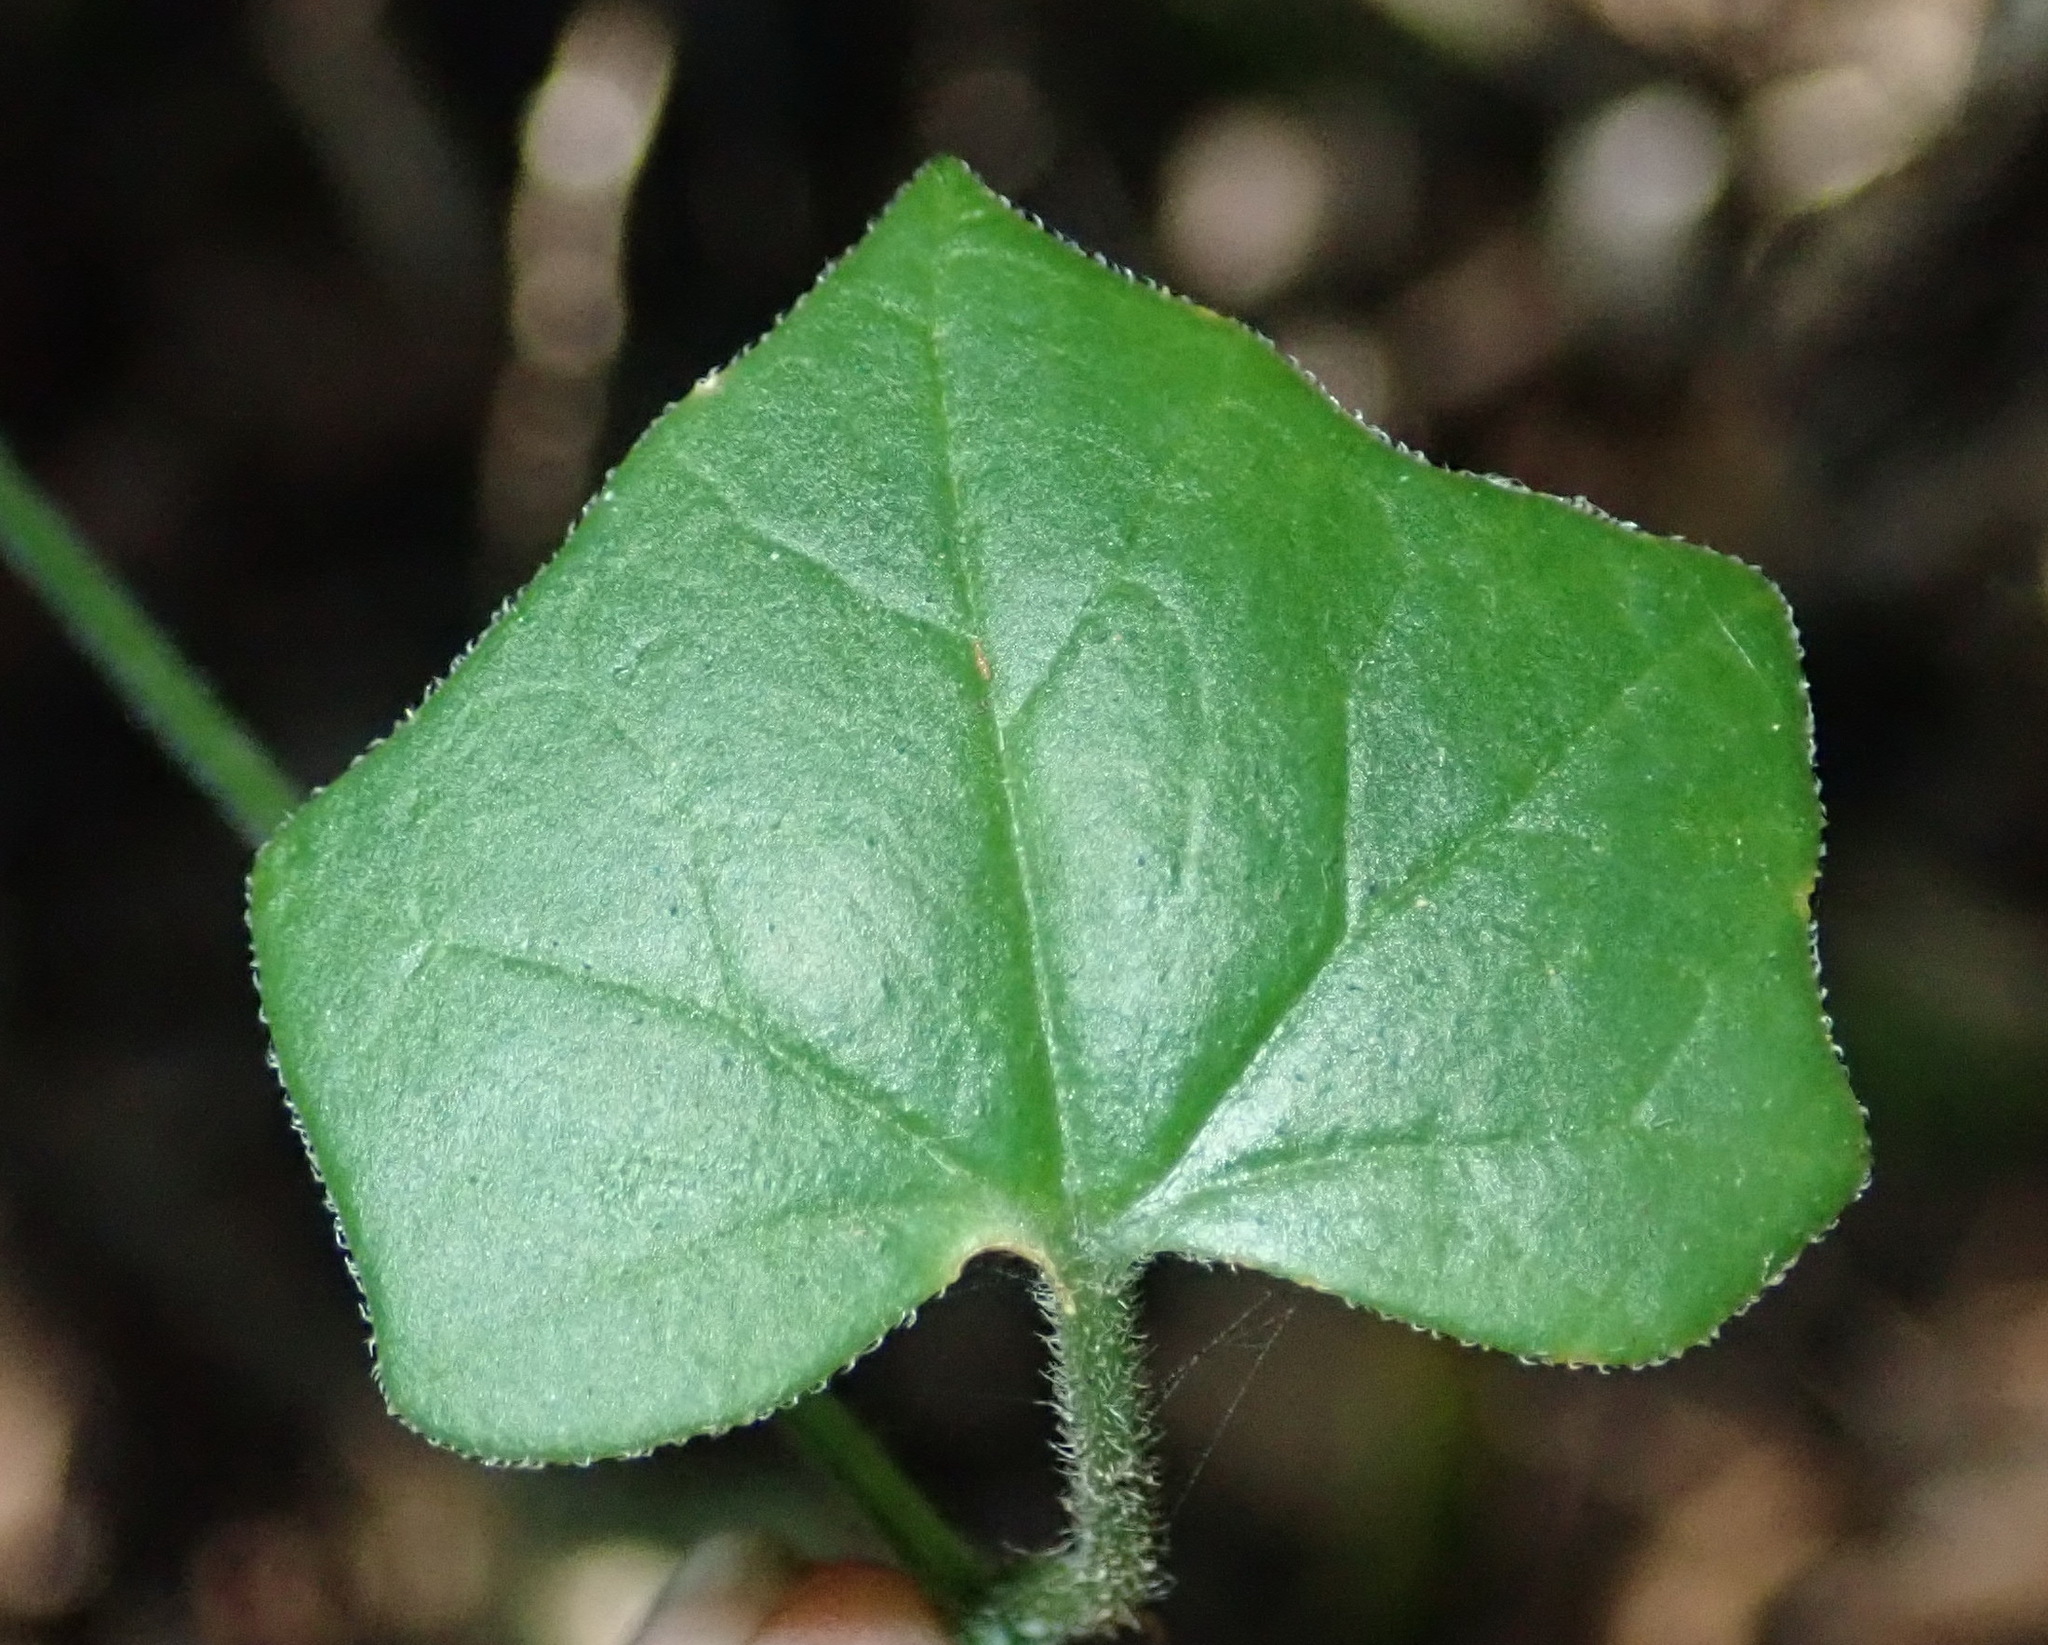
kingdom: Plantae
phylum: Tracheophyta
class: Magnoliopsida
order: Cucurbitales
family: Cucurbitaceae
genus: Kedrostis
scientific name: Kedrostis nana
